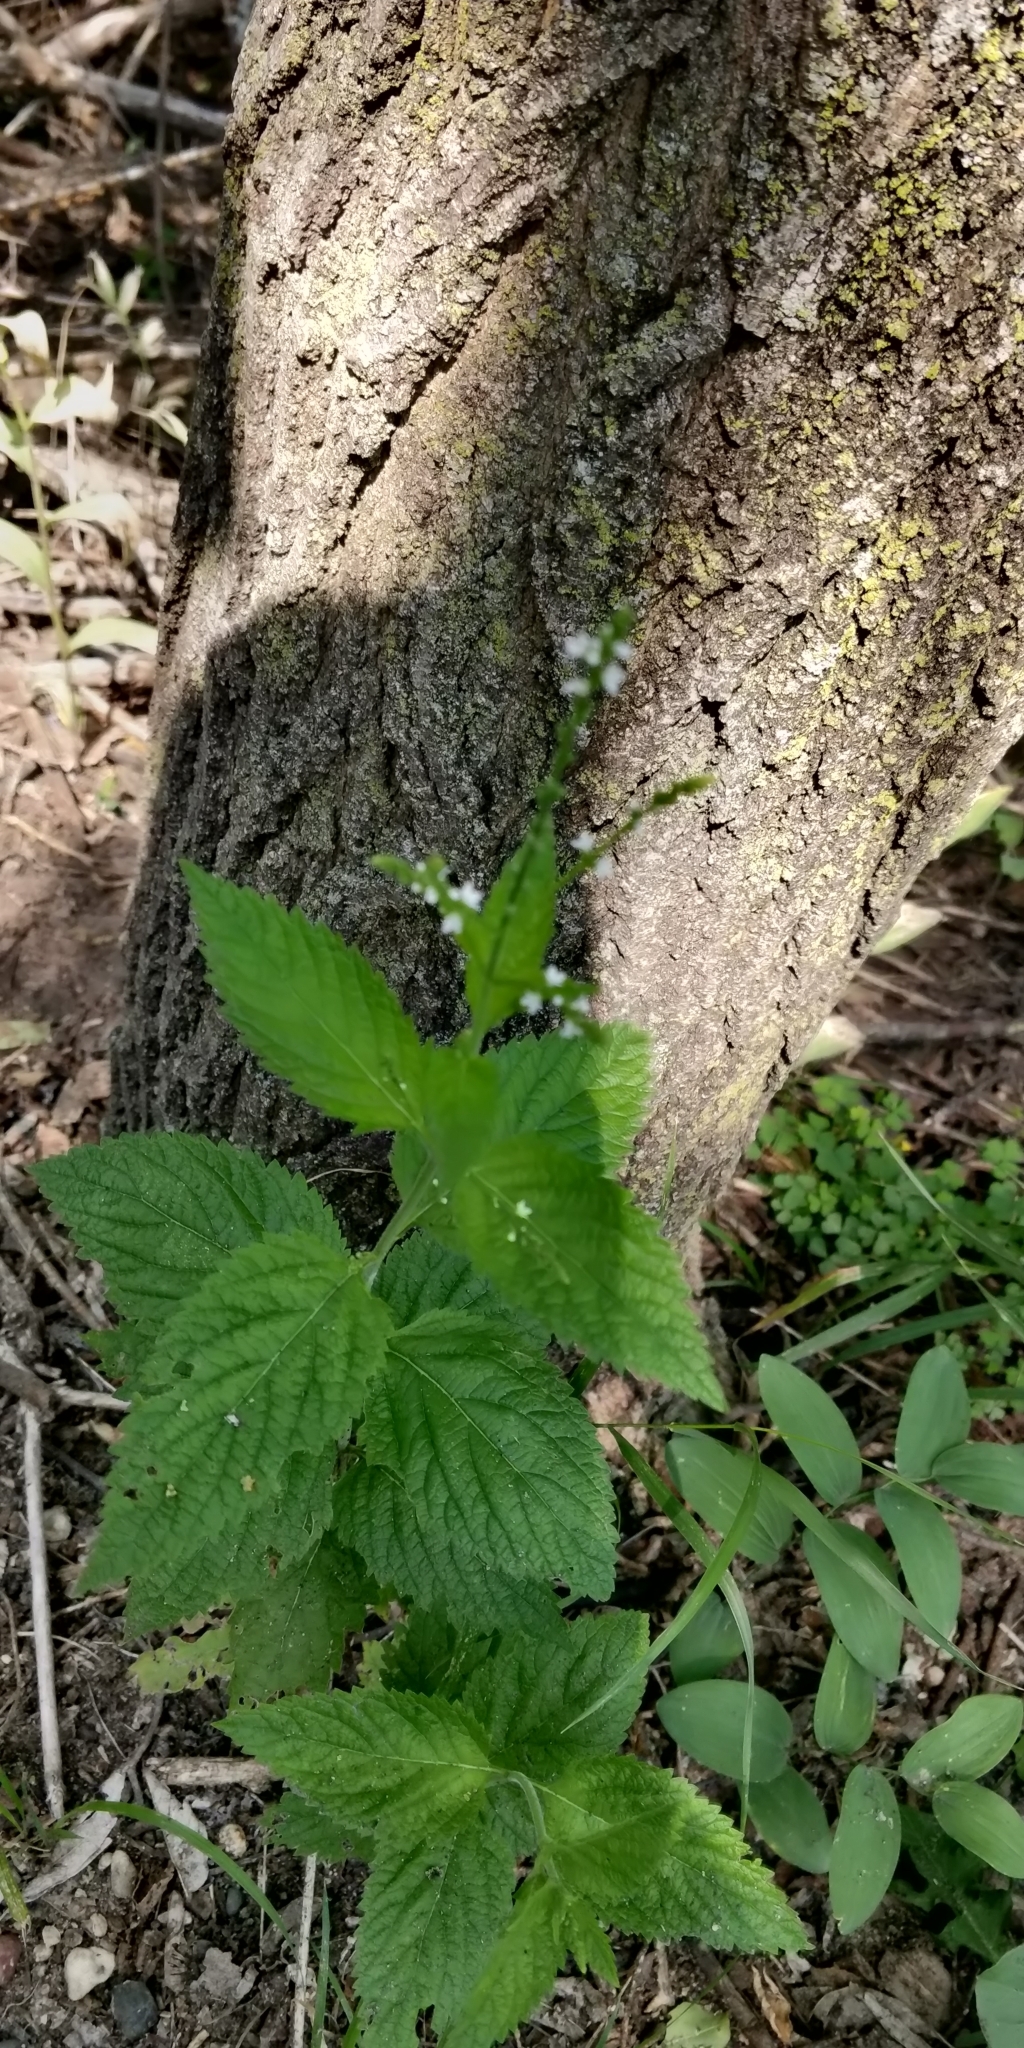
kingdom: Plantae
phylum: Tracheophyta
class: Magnoliopsida
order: Lamiales
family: Verbenaceae
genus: Verbena
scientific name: Verbena urticifolia
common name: Nettle-leaved vervain
